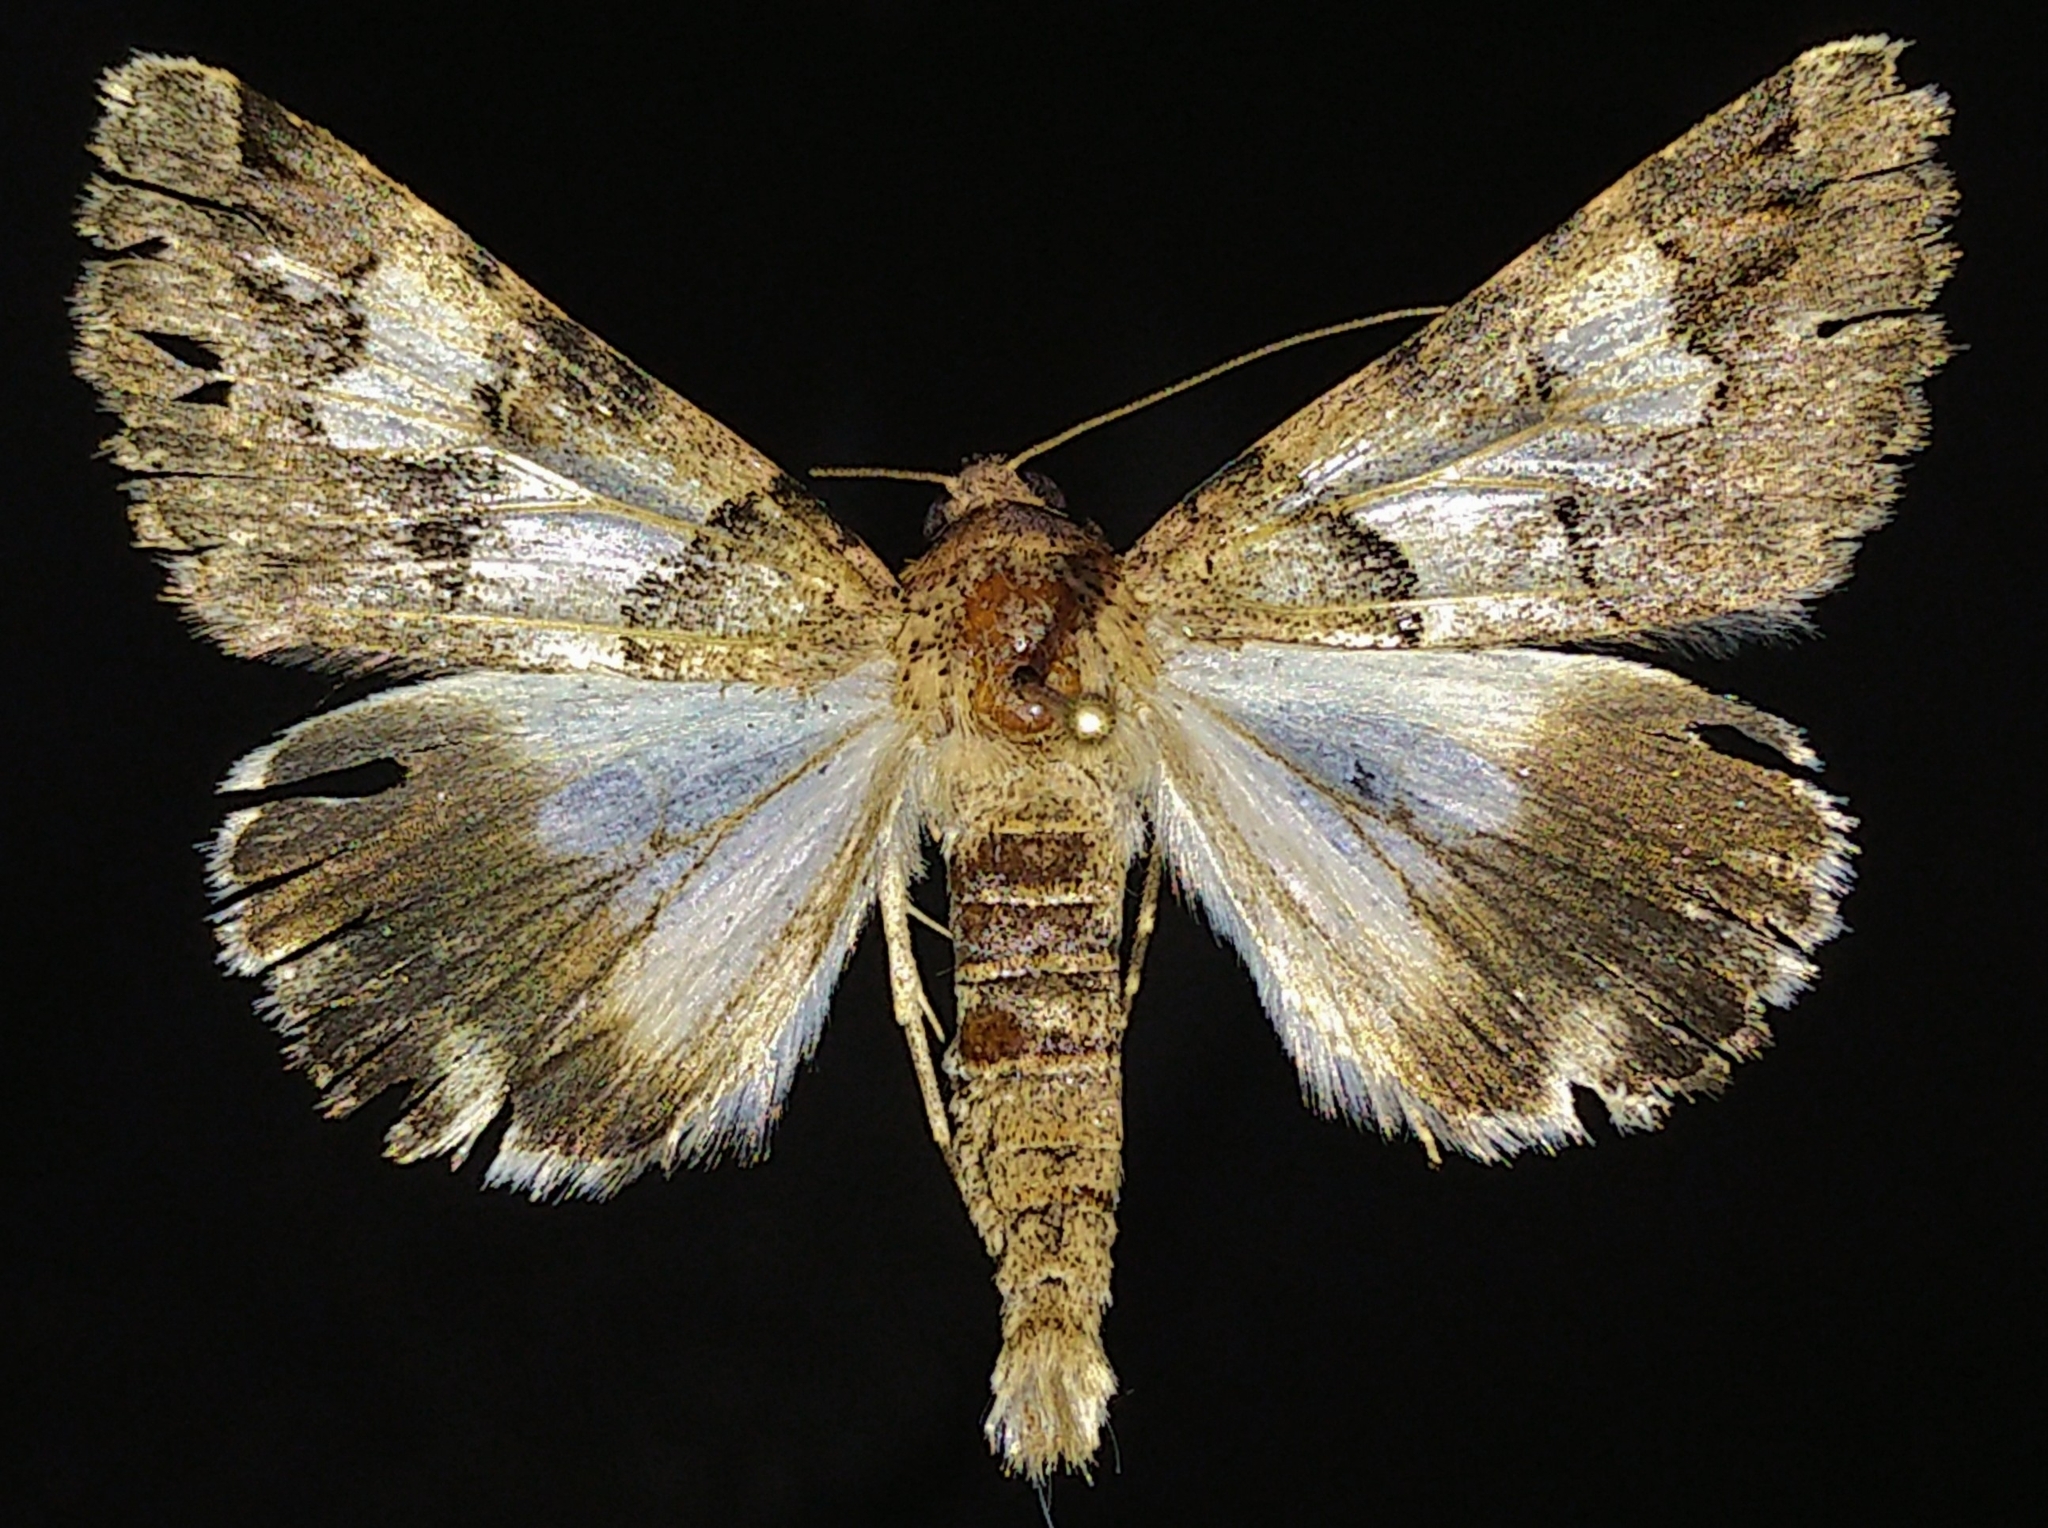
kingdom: Animalia
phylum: Arthropoda
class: Insecta
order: Lepidoptera
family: Erebidae
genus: Drasteria
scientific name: Drasteria pallescens
